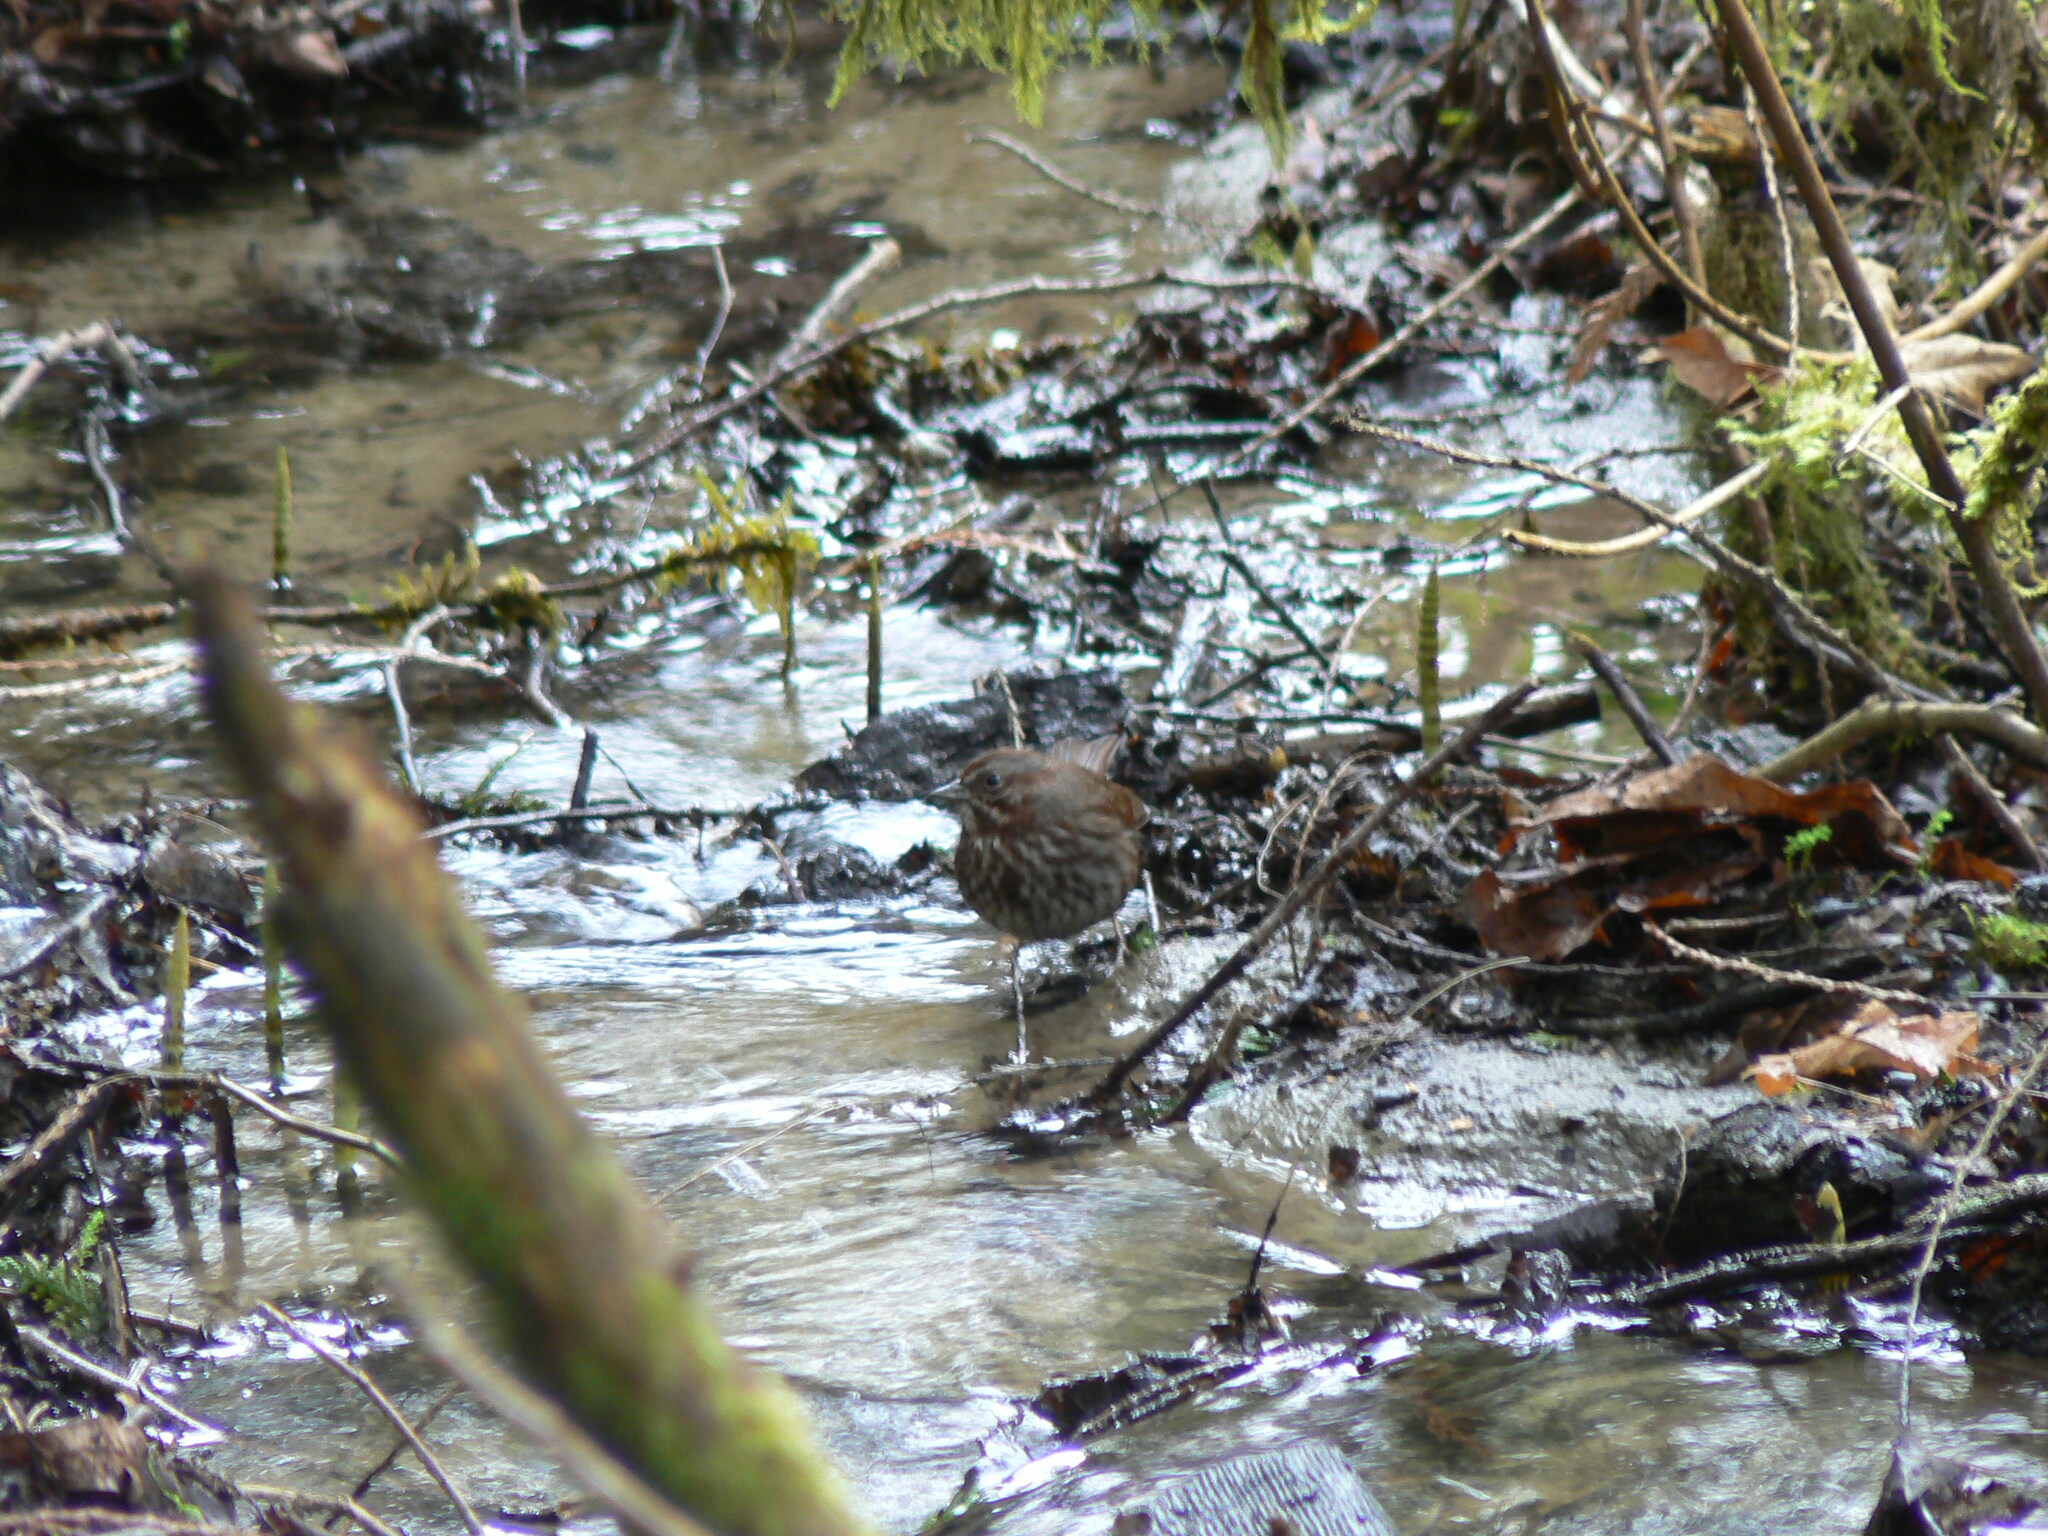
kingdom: Animalia
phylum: Chordata
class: Aves
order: Passeriformes
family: Passerellidae
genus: Melospiza
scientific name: Melospiza melodia
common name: Song sparrow
